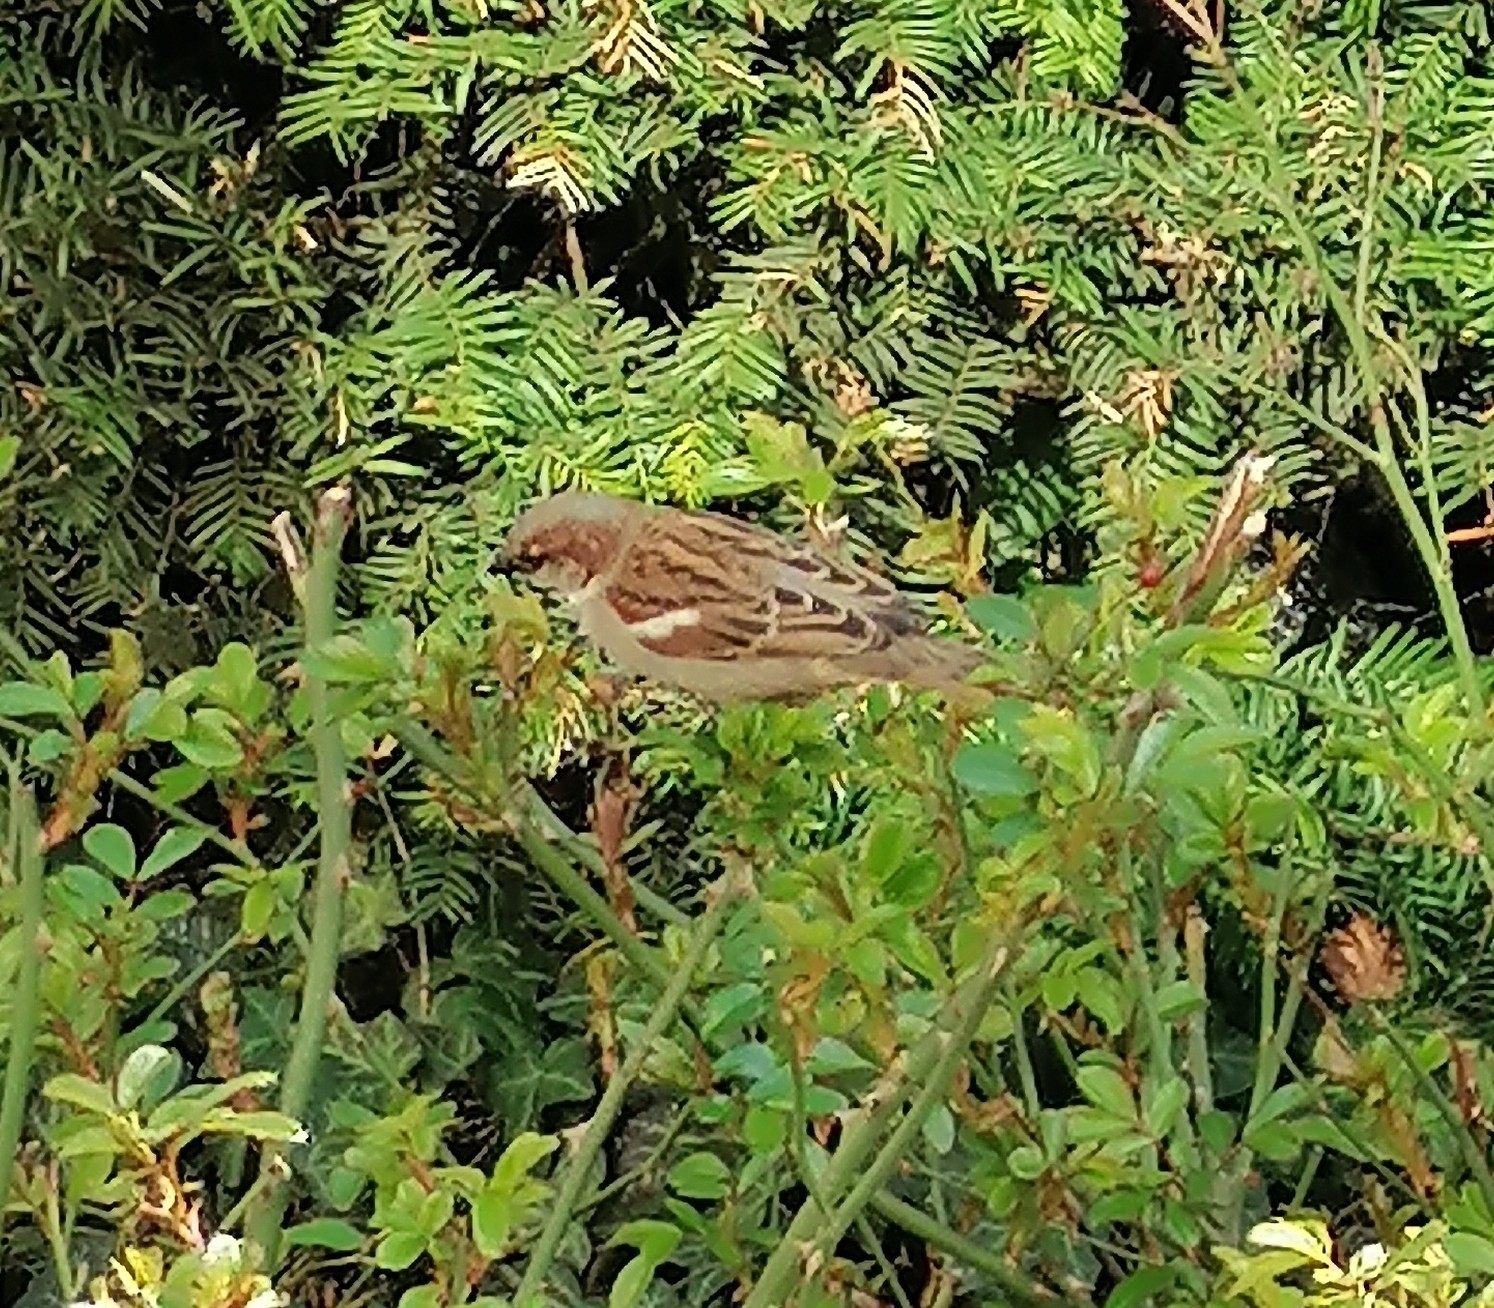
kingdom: Animalia
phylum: Chordata
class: Aves
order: Passeriformes
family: Passeridae
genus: Passer
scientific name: Passer domesticus
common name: House sparrow
